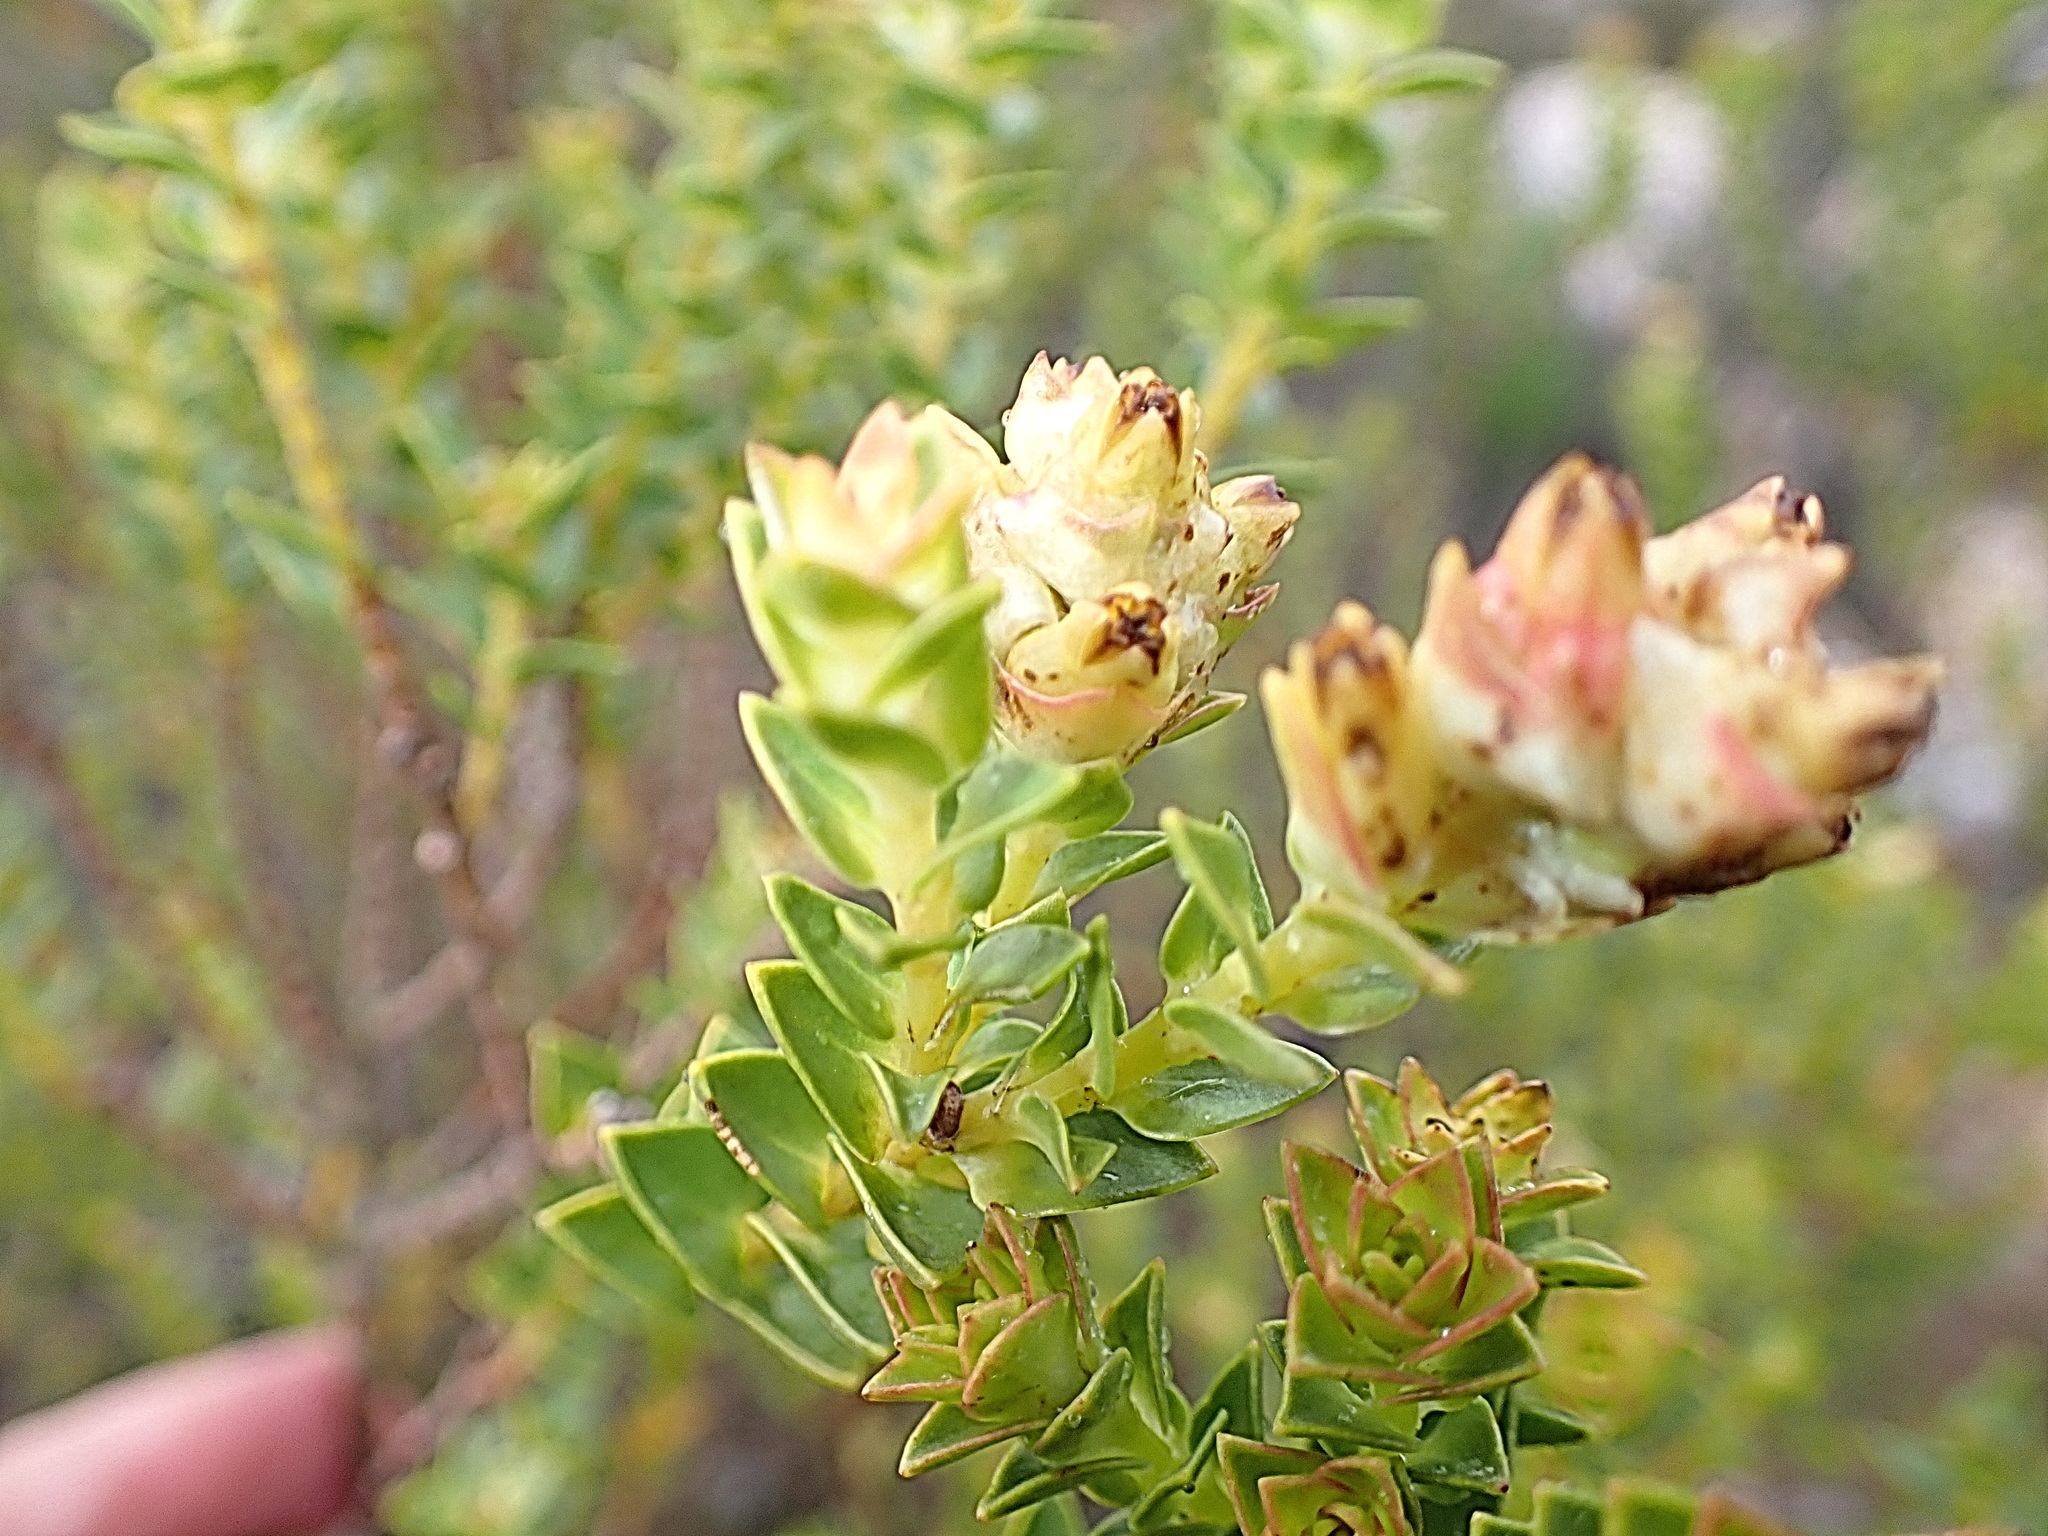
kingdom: Plantae
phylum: Tracheophyta
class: Magnoliopsida
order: Myrtales
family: Penaeaceae
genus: Penaea
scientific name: Penaea mucronata
